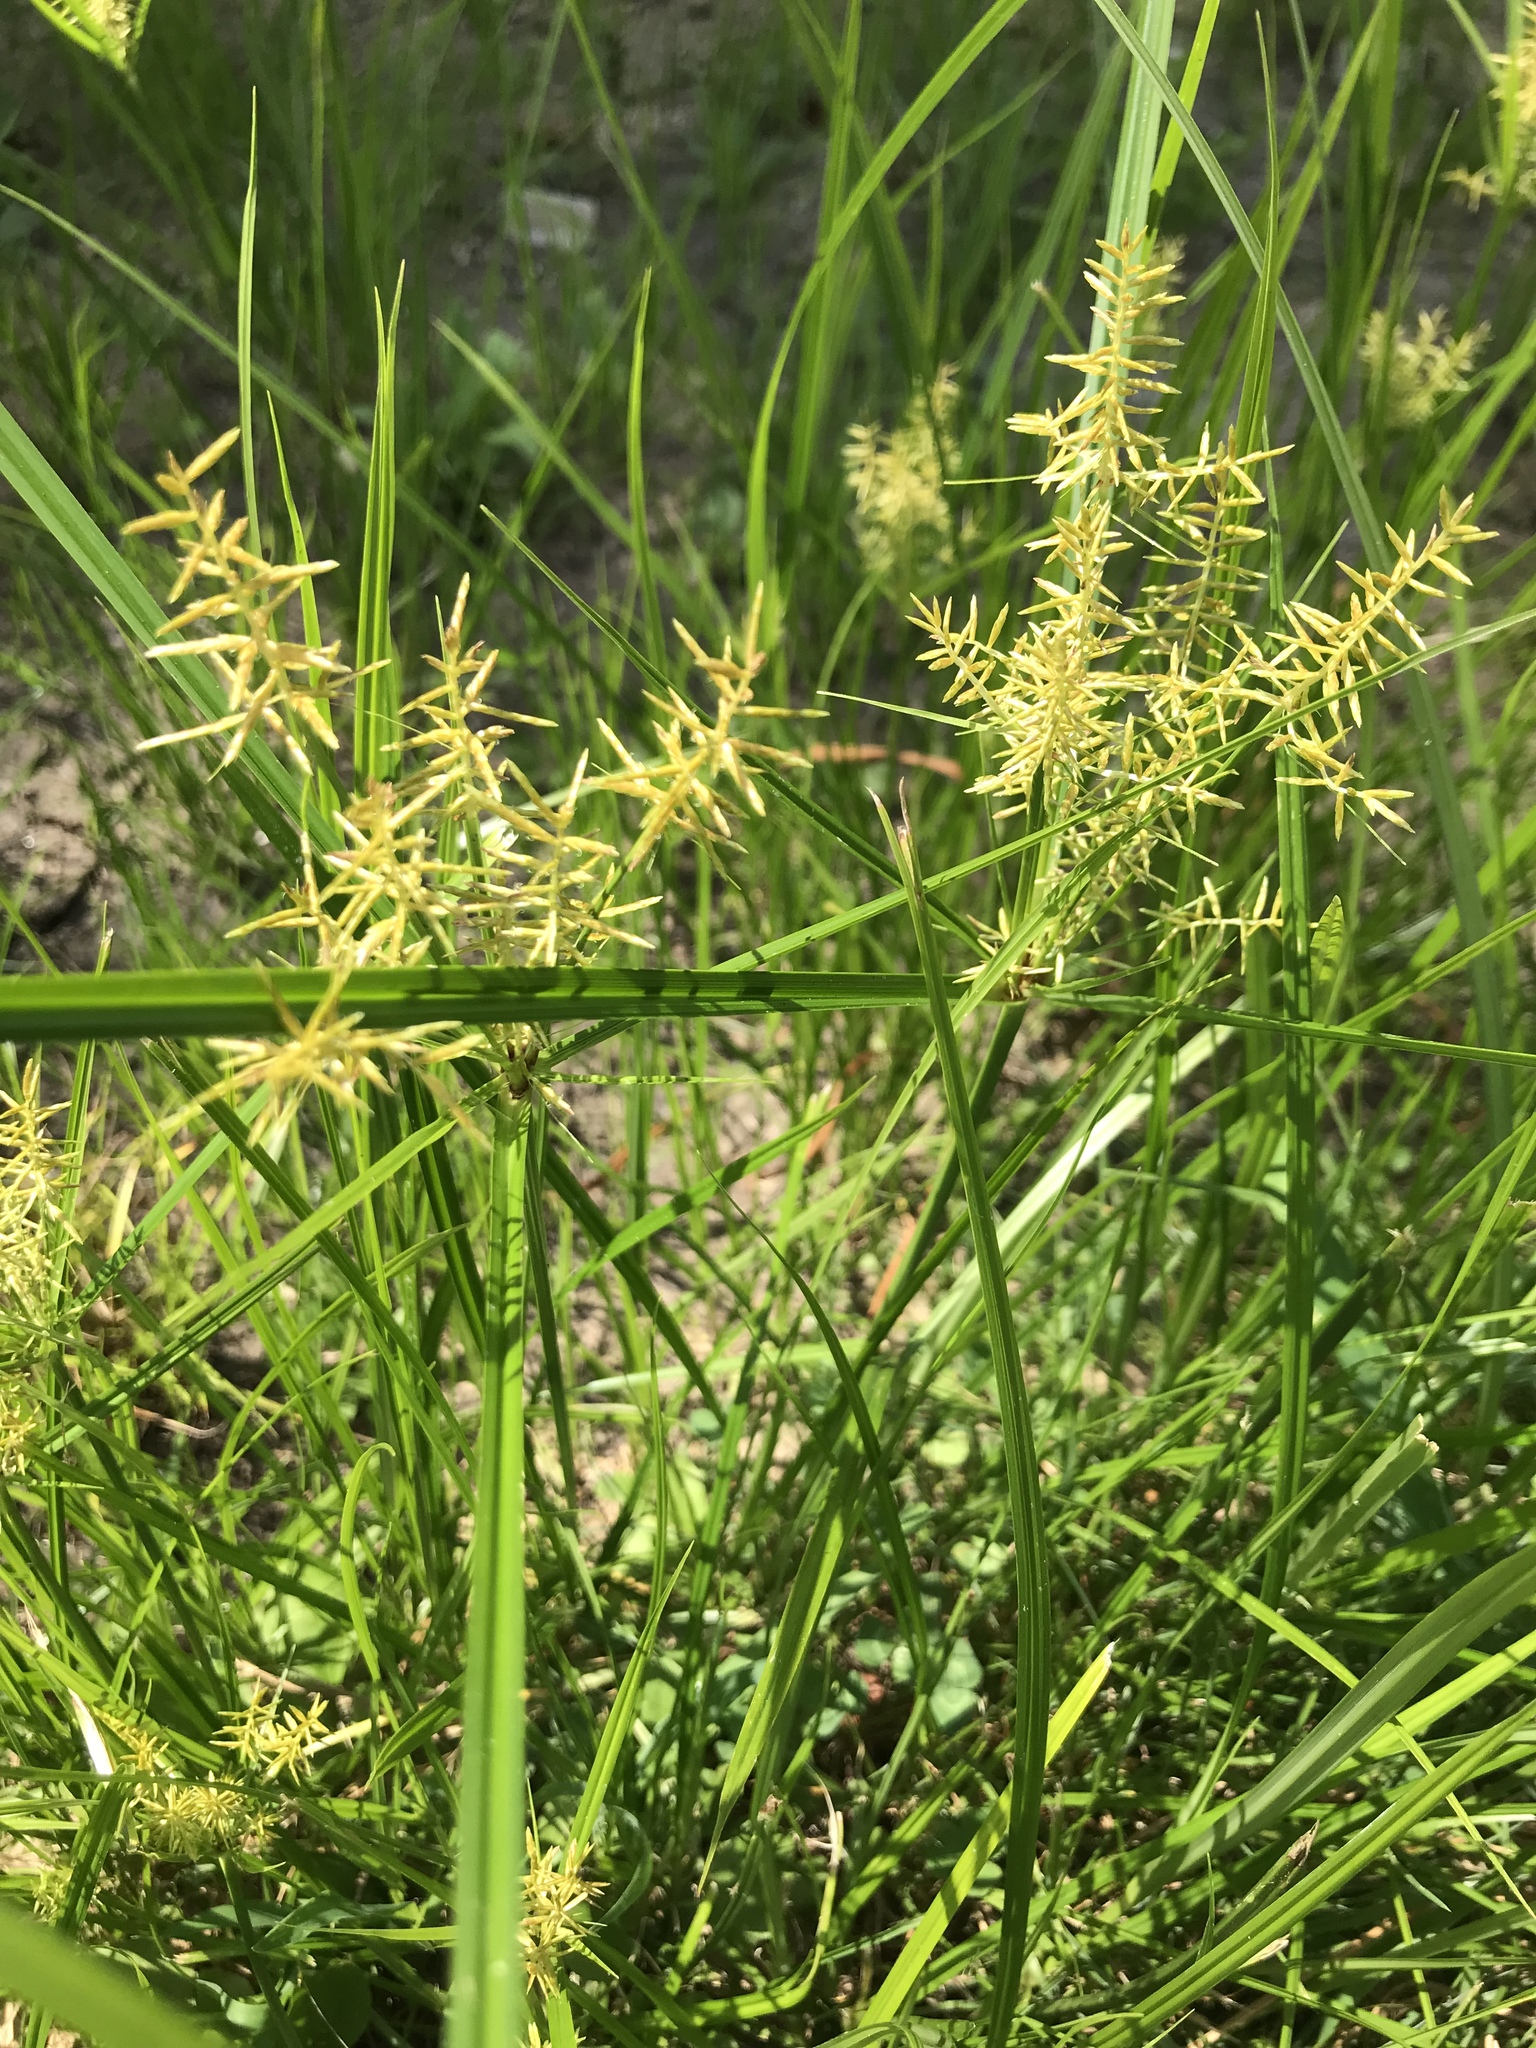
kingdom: Plantae
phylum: Tracheophyta
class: Liliopsida
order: Poales
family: Cyperaceae
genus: Cyperus
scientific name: Cyperus esculentus
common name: Yellow nutsedge
